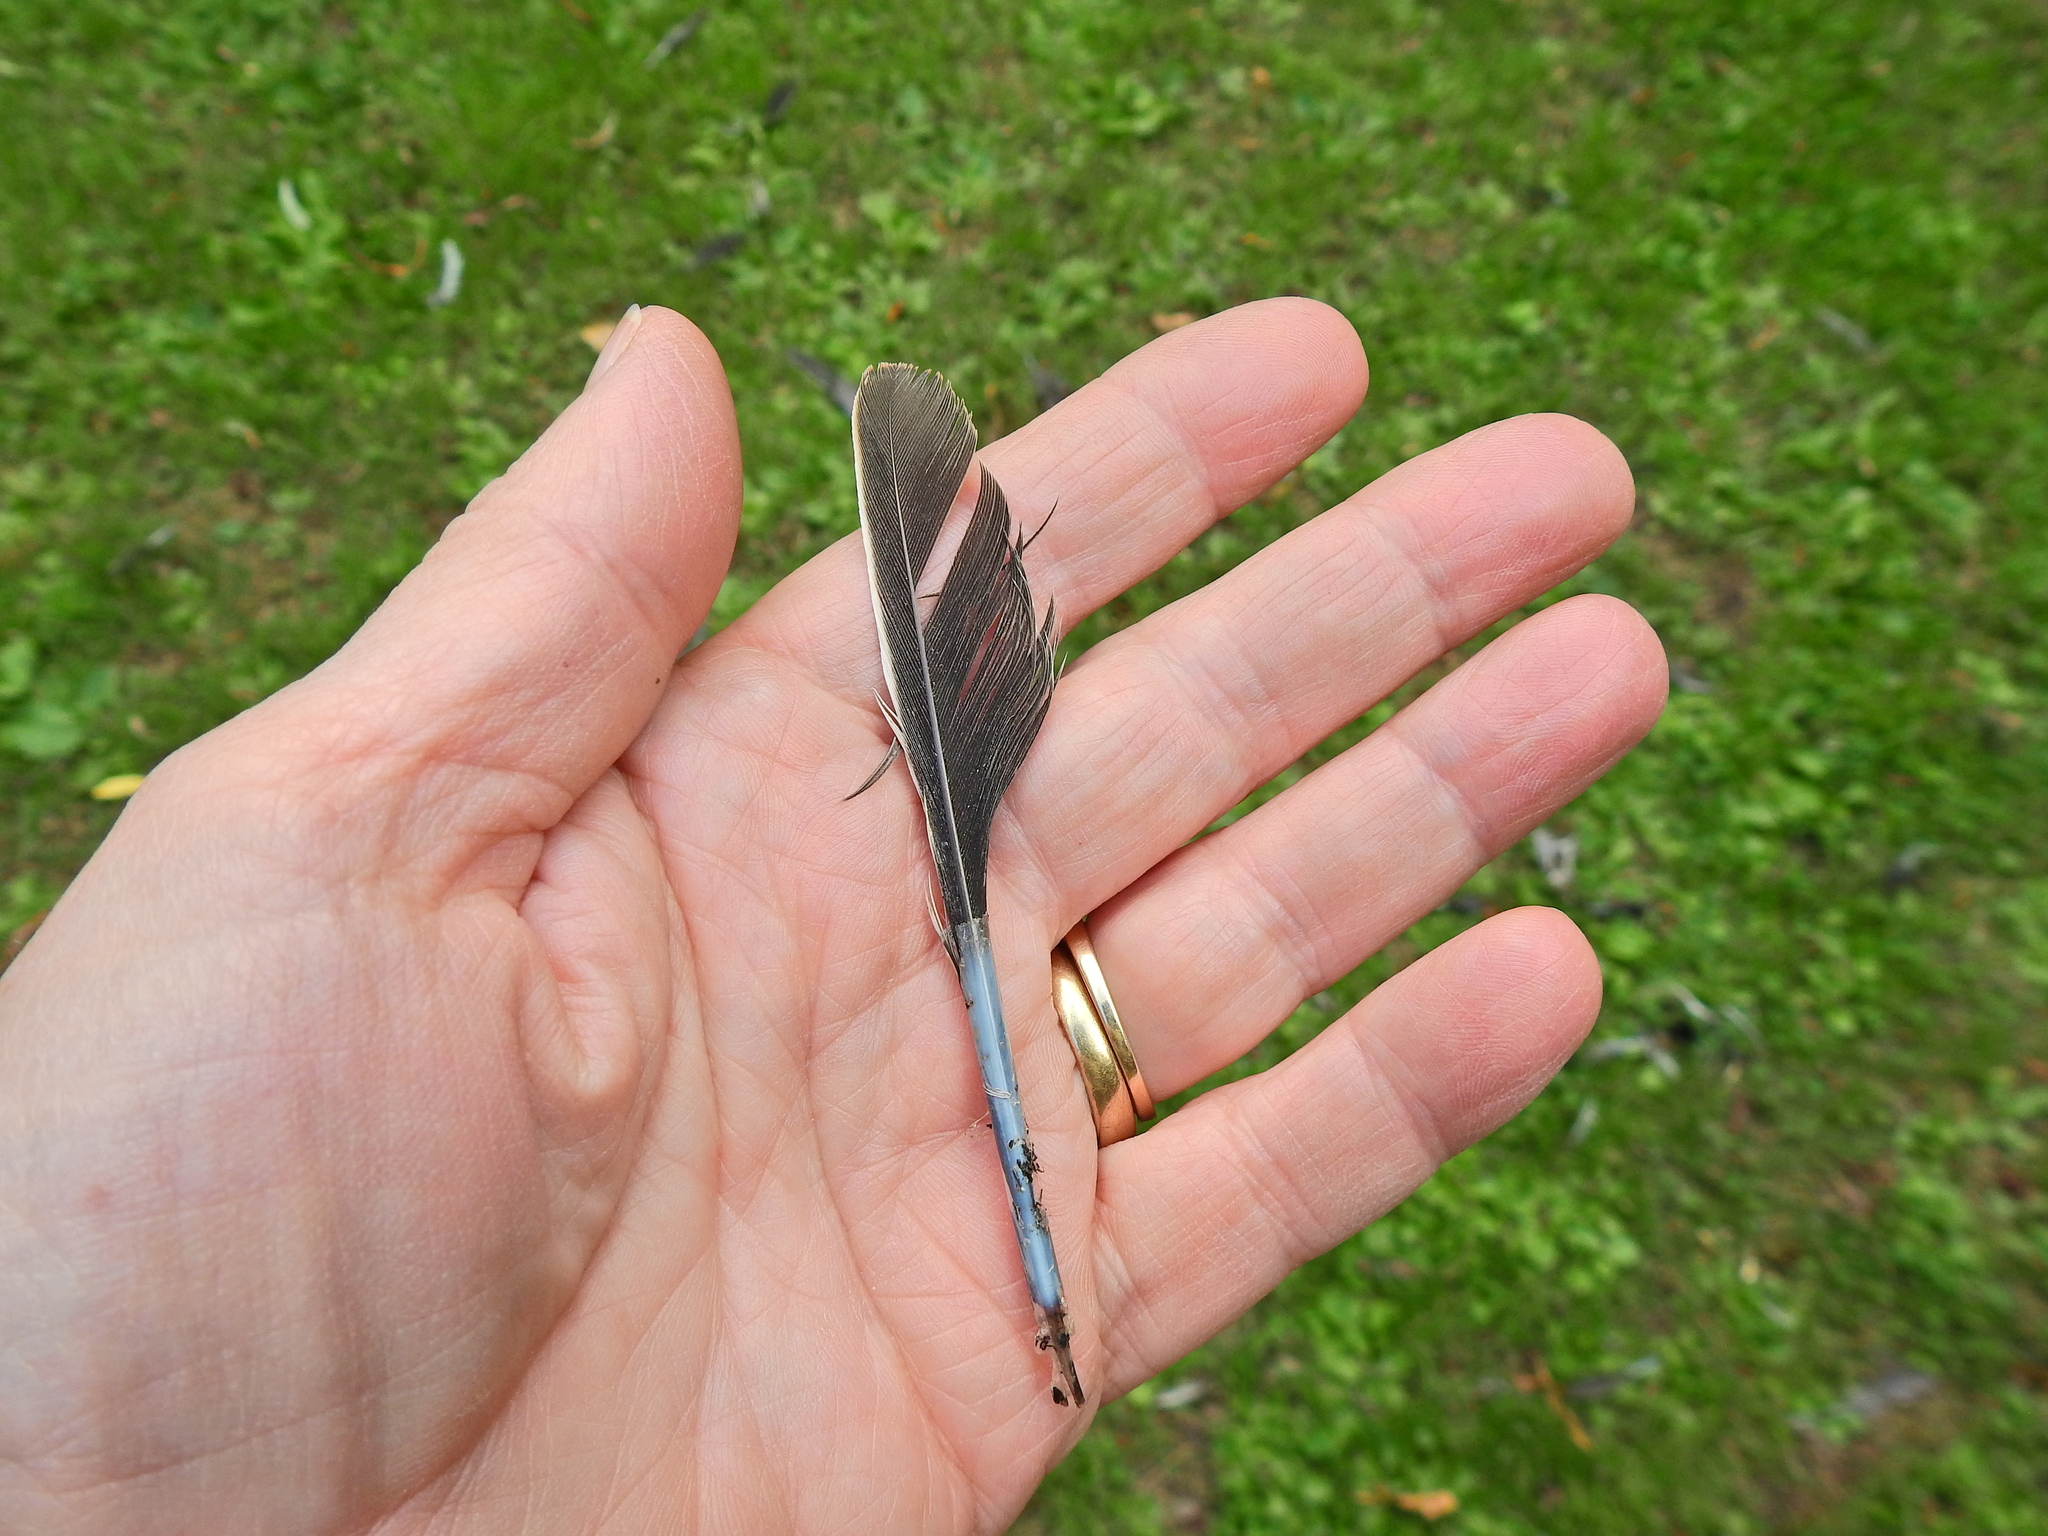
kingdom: Animalia
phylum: Chordata
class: Aves
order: Columbiformes
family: Columbidae
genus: Columba
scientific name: Columba palumbus
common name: Common wood pigeon
